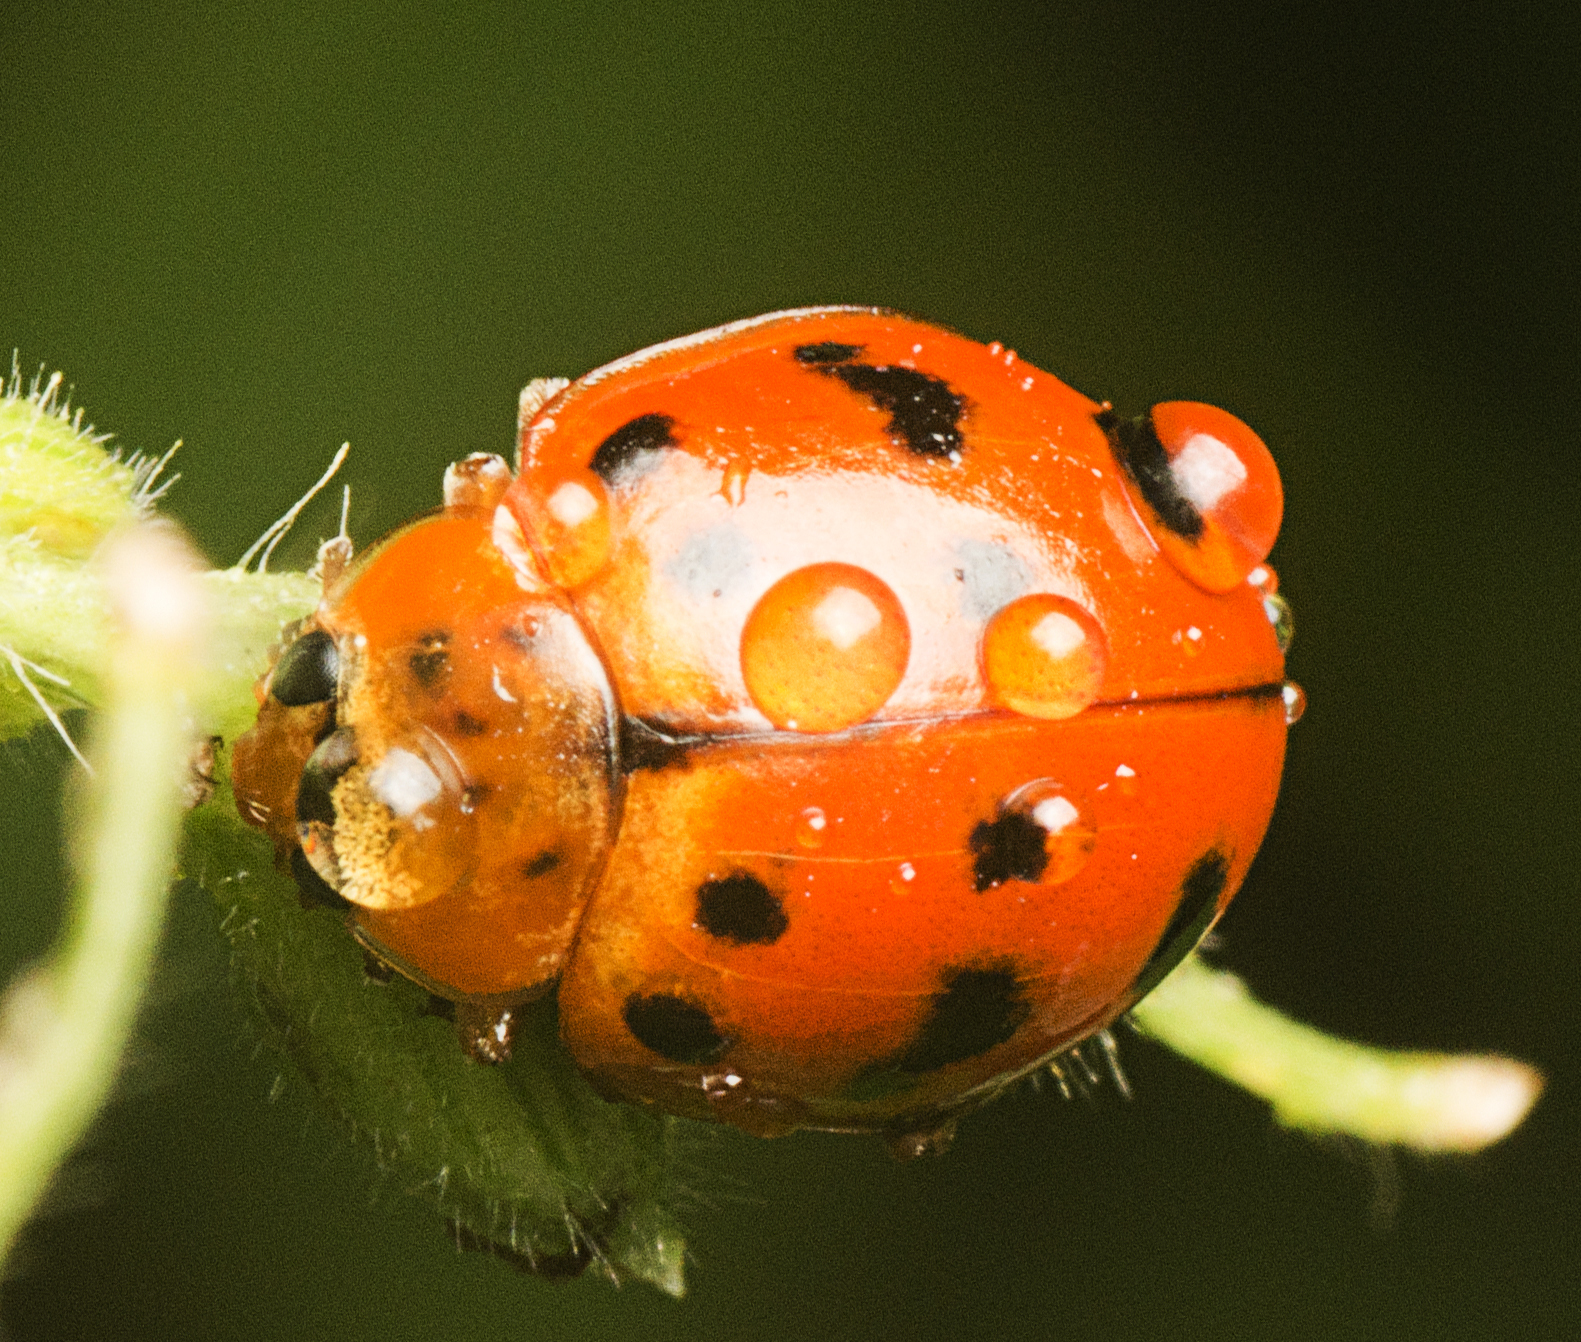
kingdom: Animalia
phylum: Arthropoda
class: Insecta
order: Coleoptera
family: Coccinellidae
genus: Harmonia
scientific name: Harmonia octomaculata
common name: Lady beetle
